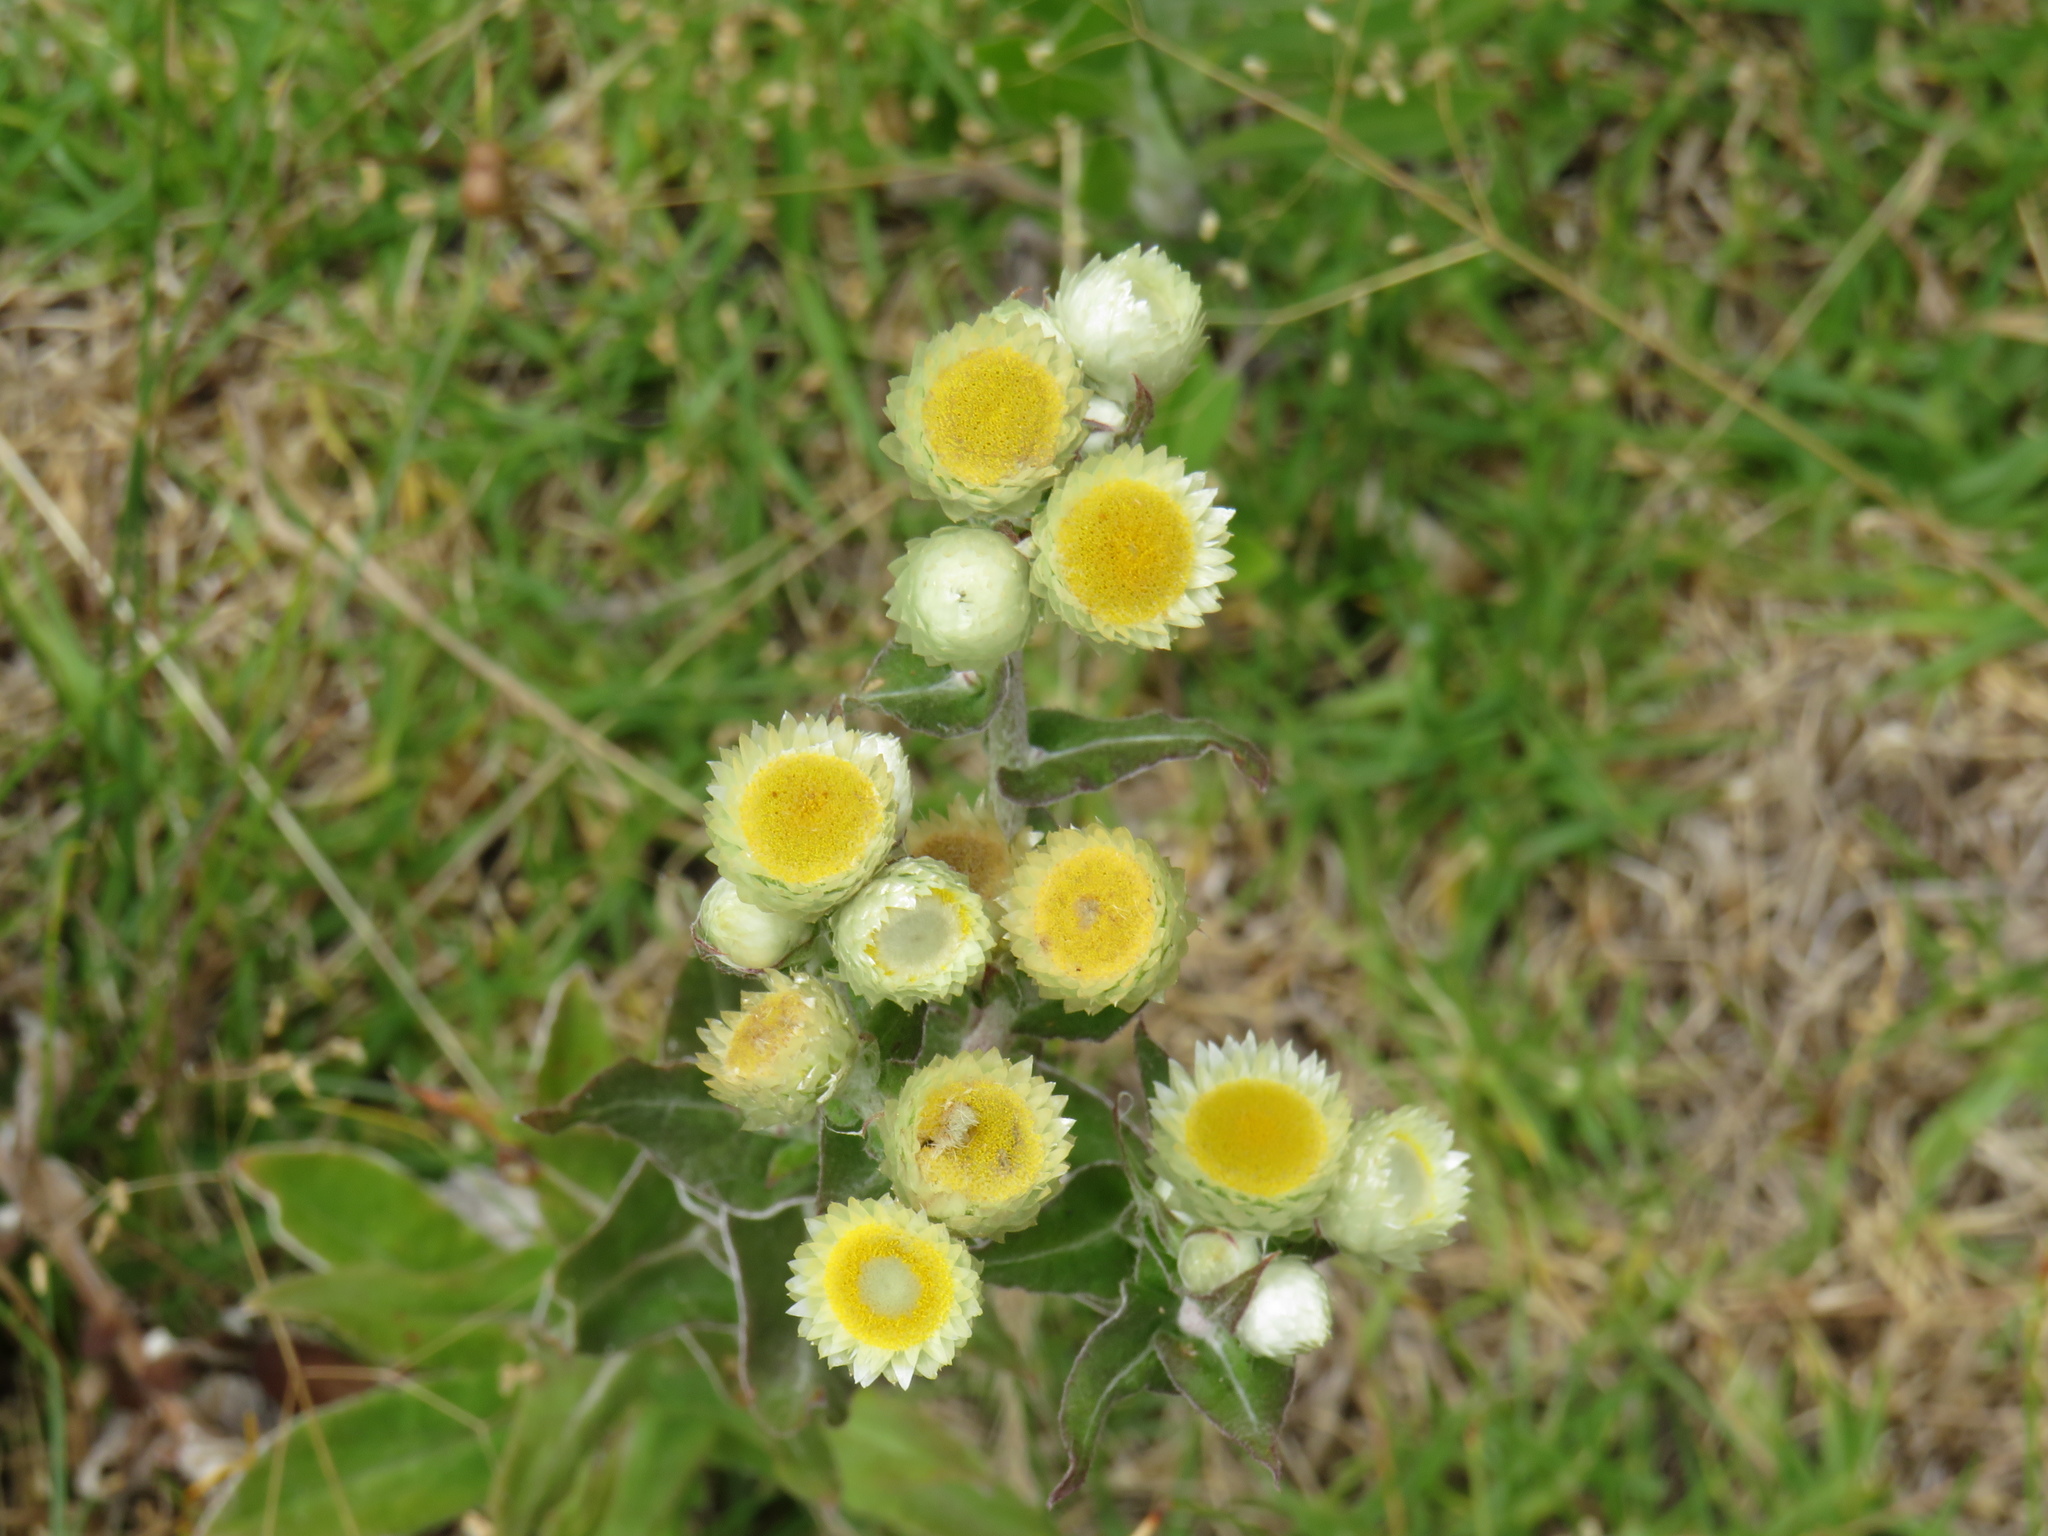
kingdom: Plantae
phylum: Tracheophyta
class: Magnoliopsida
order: Asterales
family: Asteraceae
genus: Helichrysum
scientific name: Helichrysum foetidum
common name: Stinking everlasting
